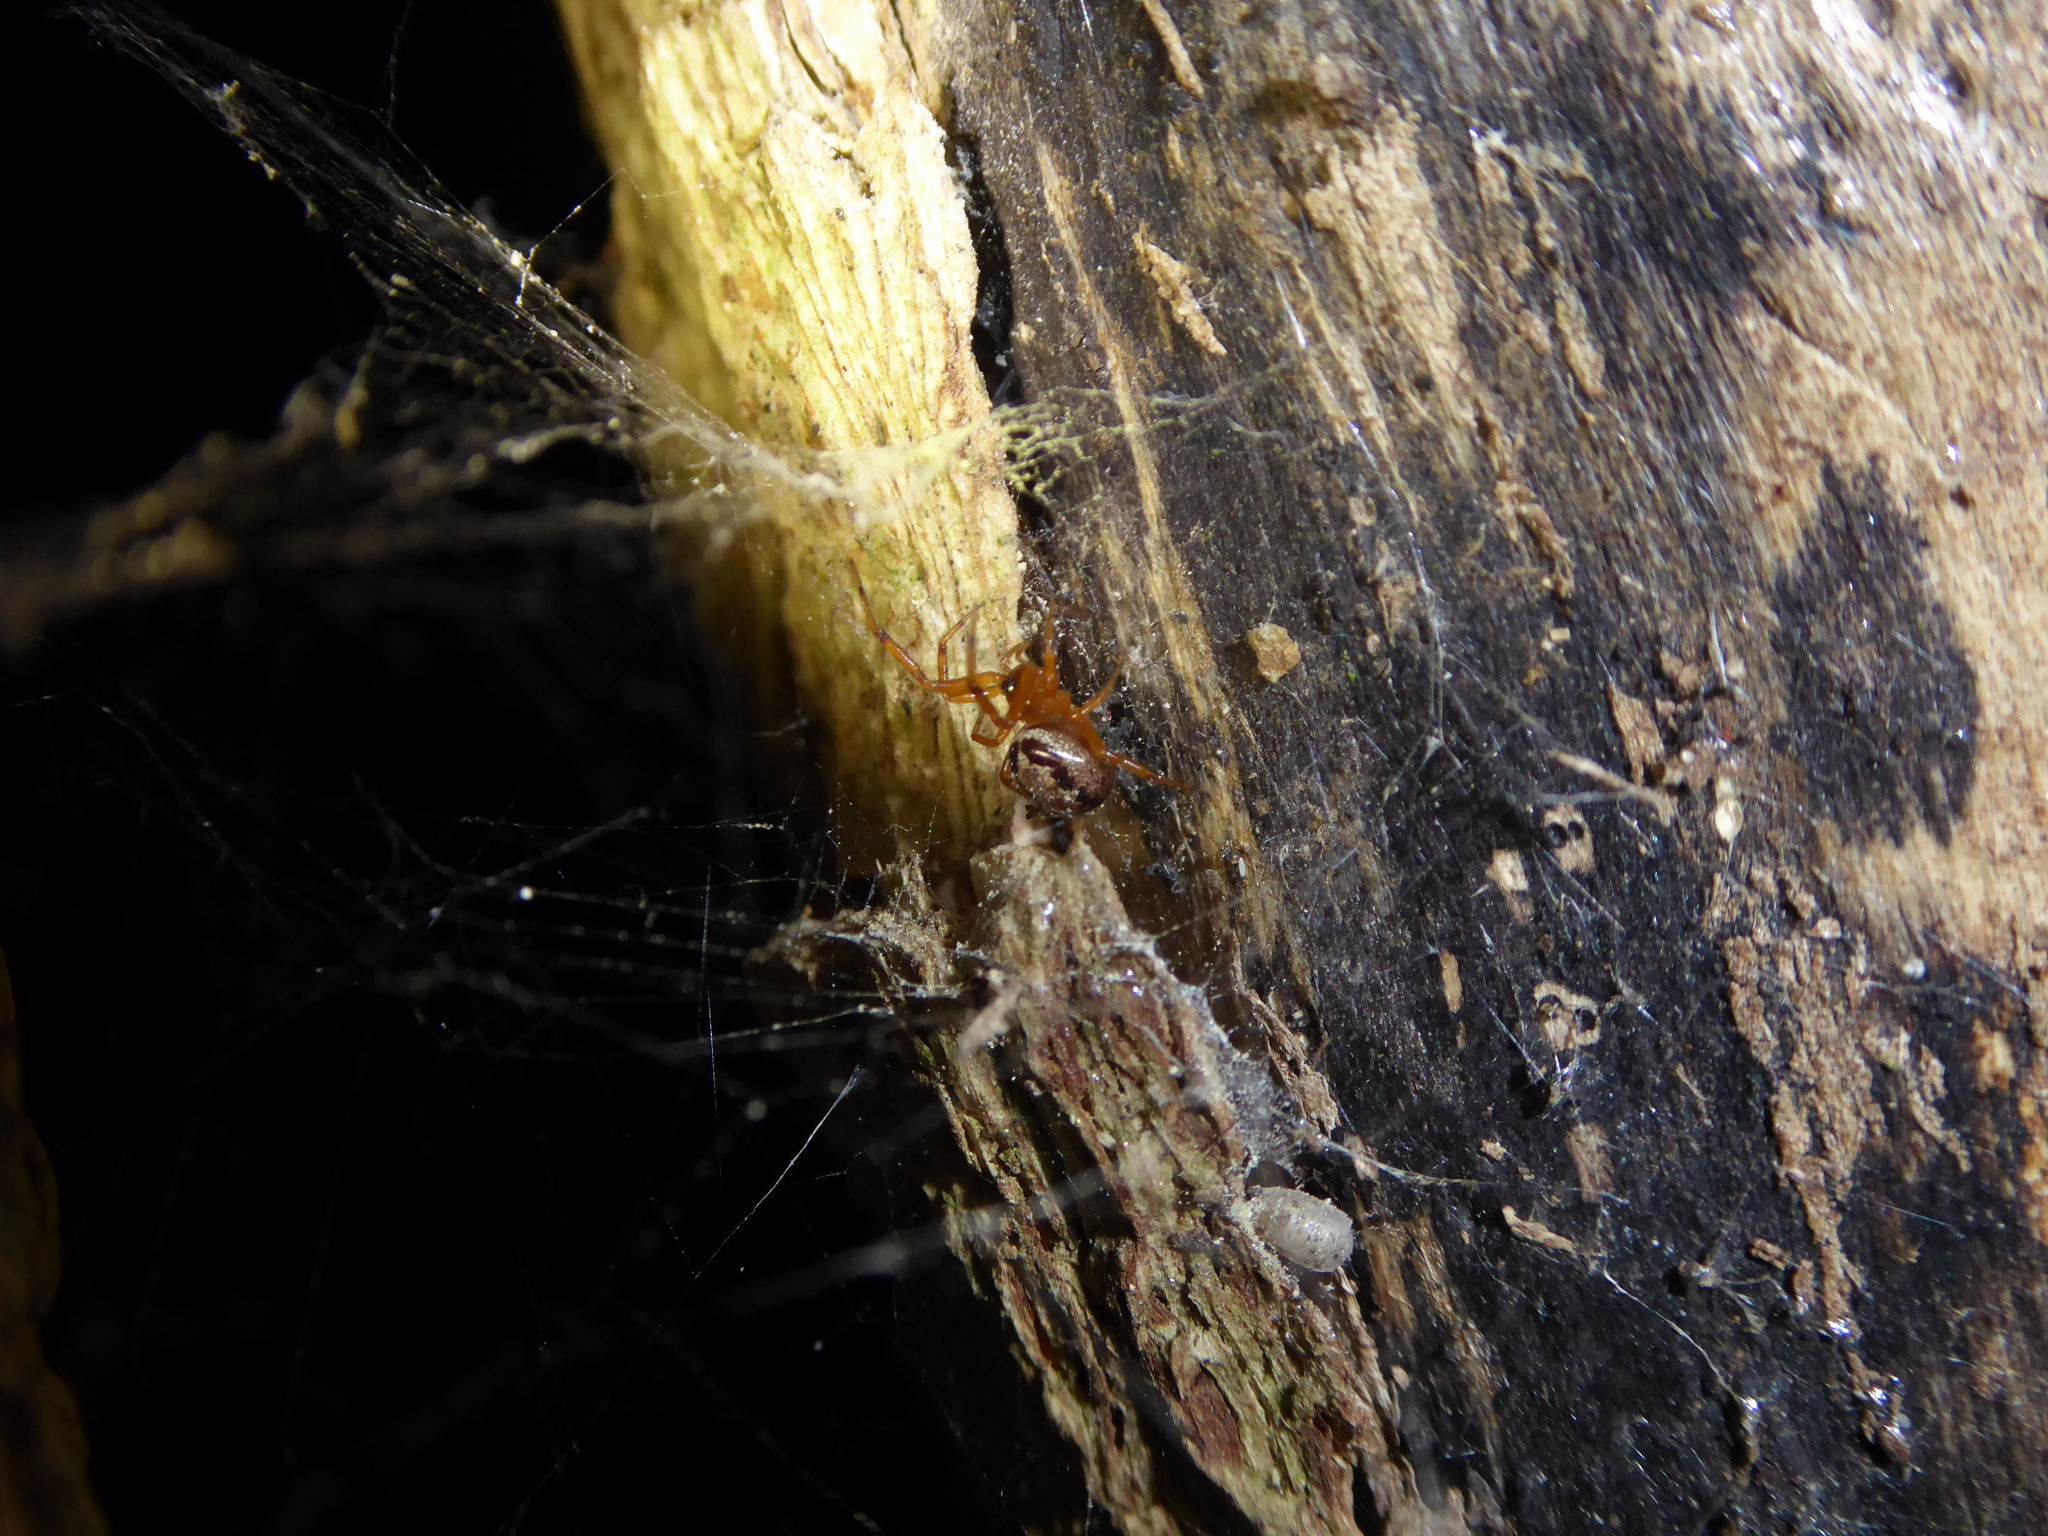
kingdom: Animalia
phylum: Arthropoda
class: Arachnida
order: Araneae
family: Theridiidae
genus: Steatoda
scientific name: Steatoda nobilis
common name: Cobweb weaver
